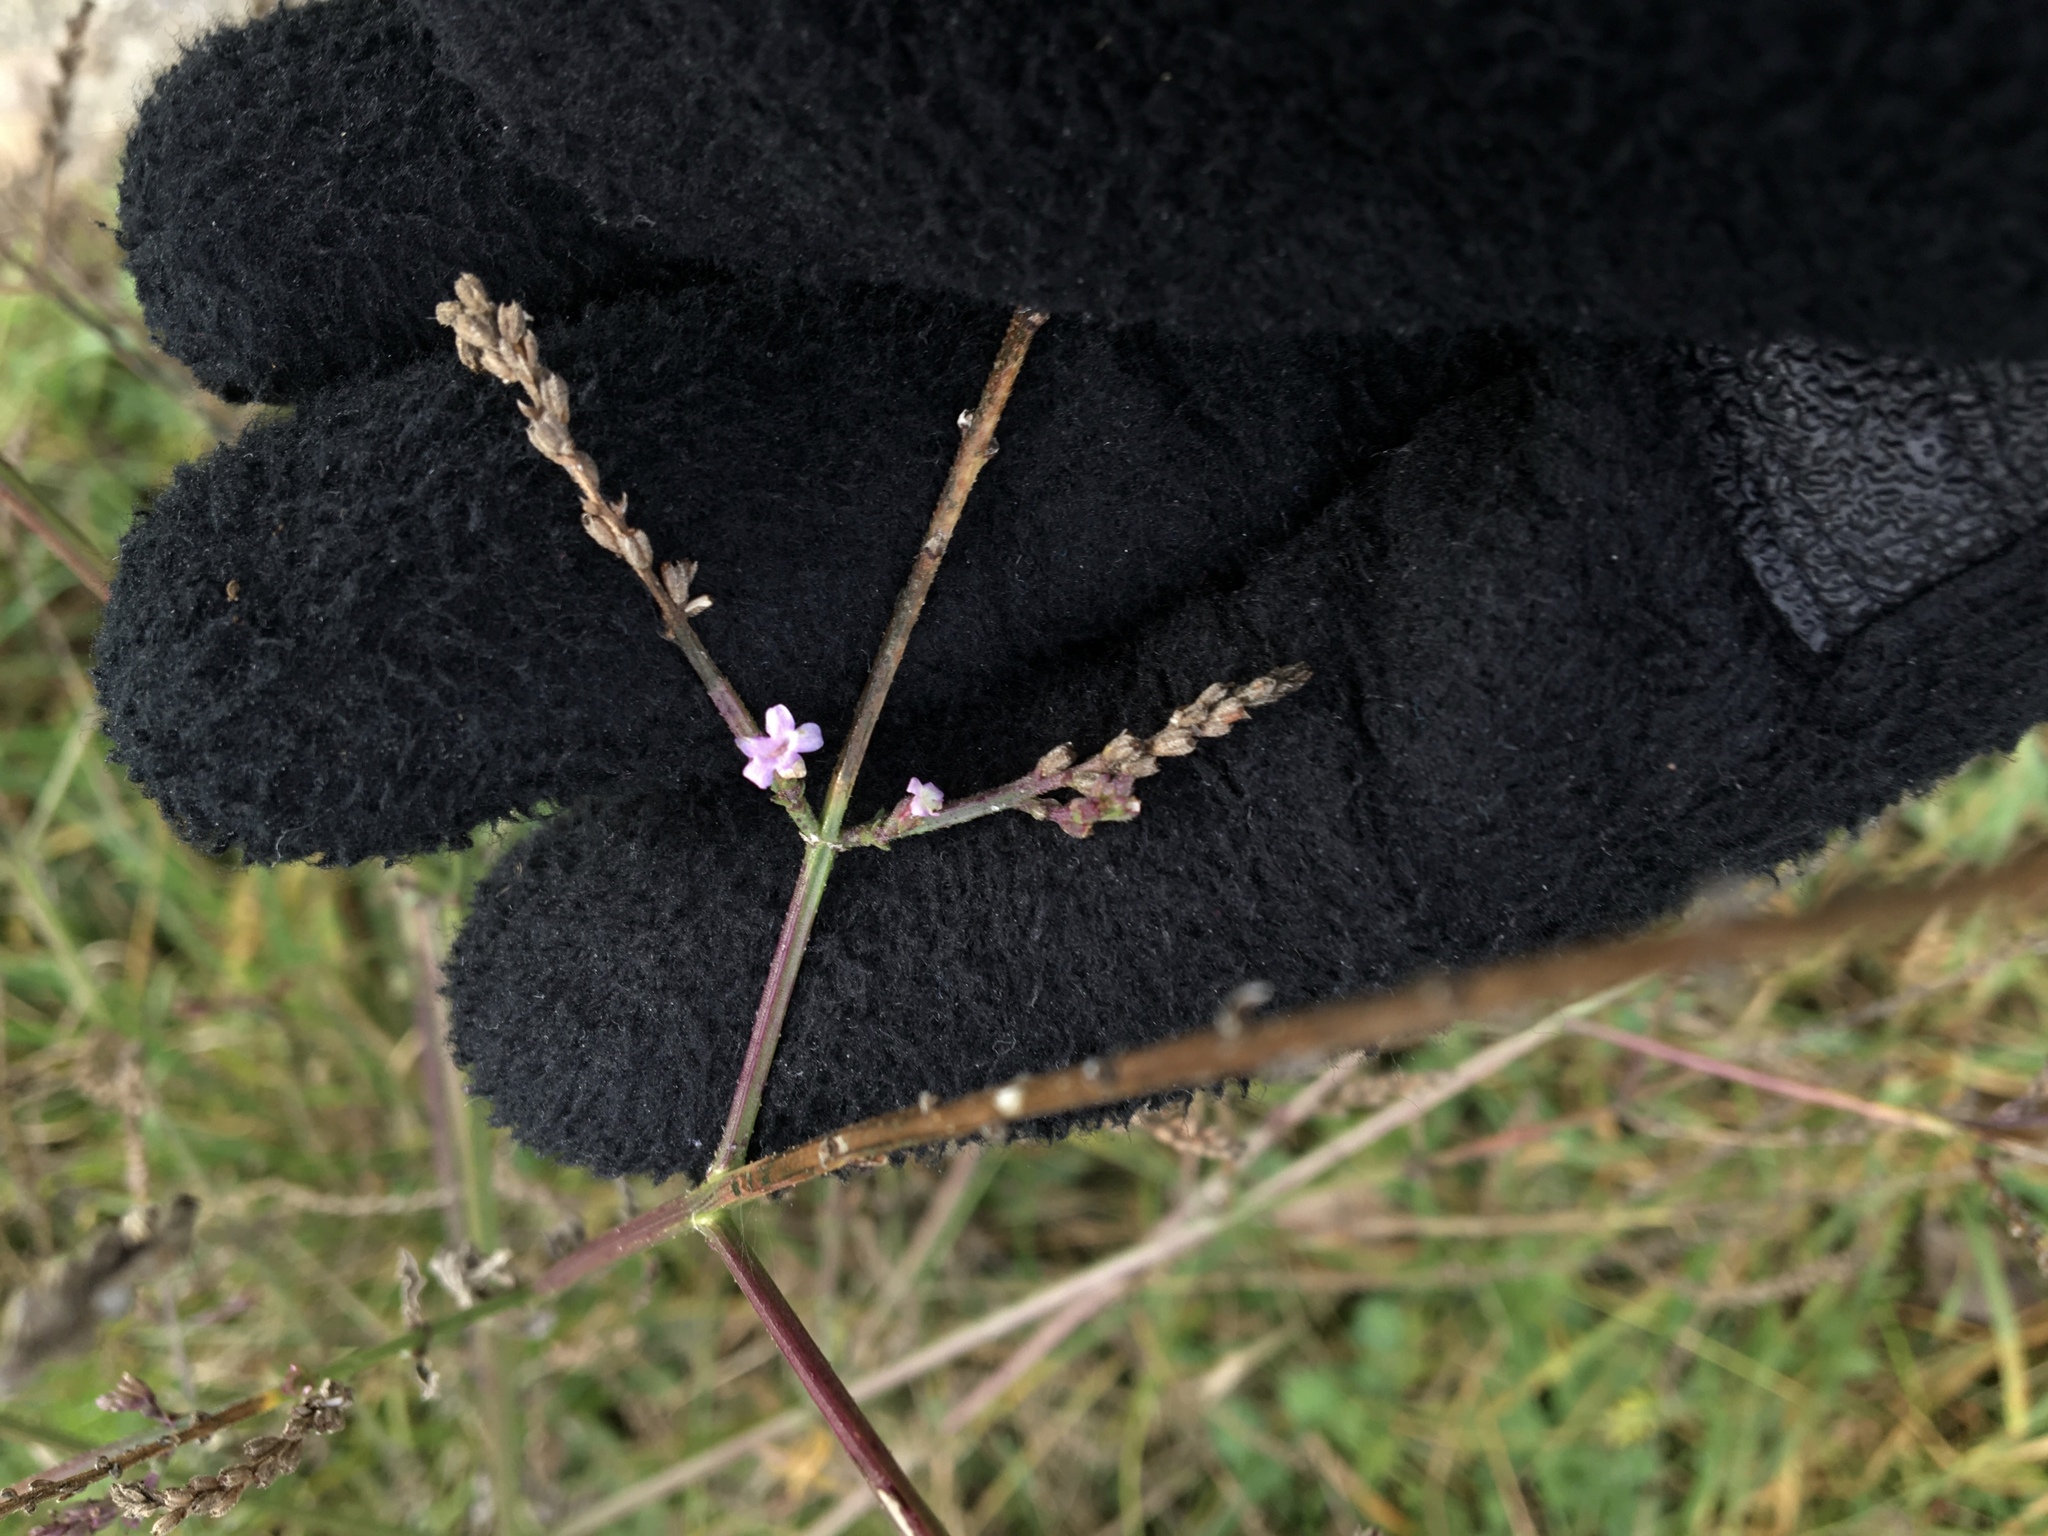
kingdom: Plantae
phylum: Tracheophyta
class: Magnoliopsida
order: Lamiales
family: Verbenaceae
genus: Verbena
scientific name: Verbena officinalis
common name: Vervain
